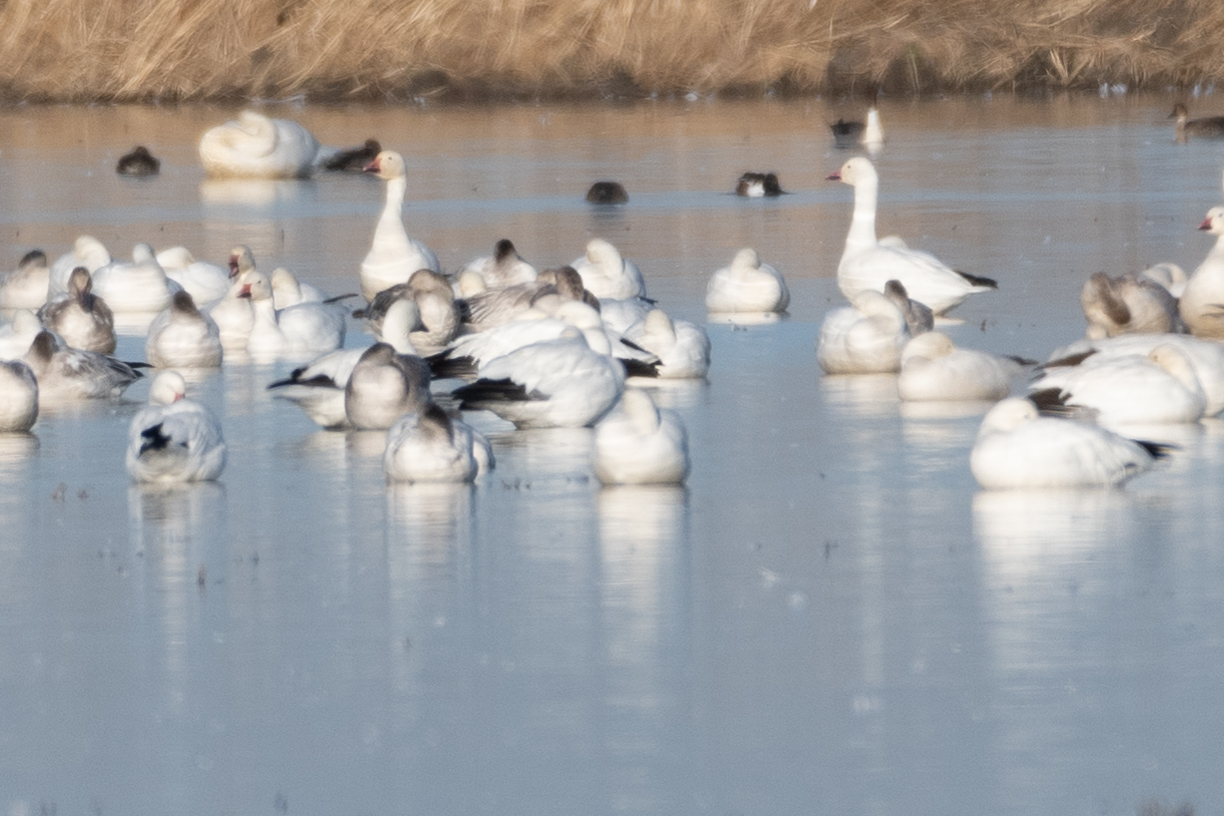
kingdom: Animalia
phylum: Chordata
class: Aves
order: Anseriformes
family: Anatidae
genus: Anser
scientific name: Anser caerulescens
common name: Snow goose
